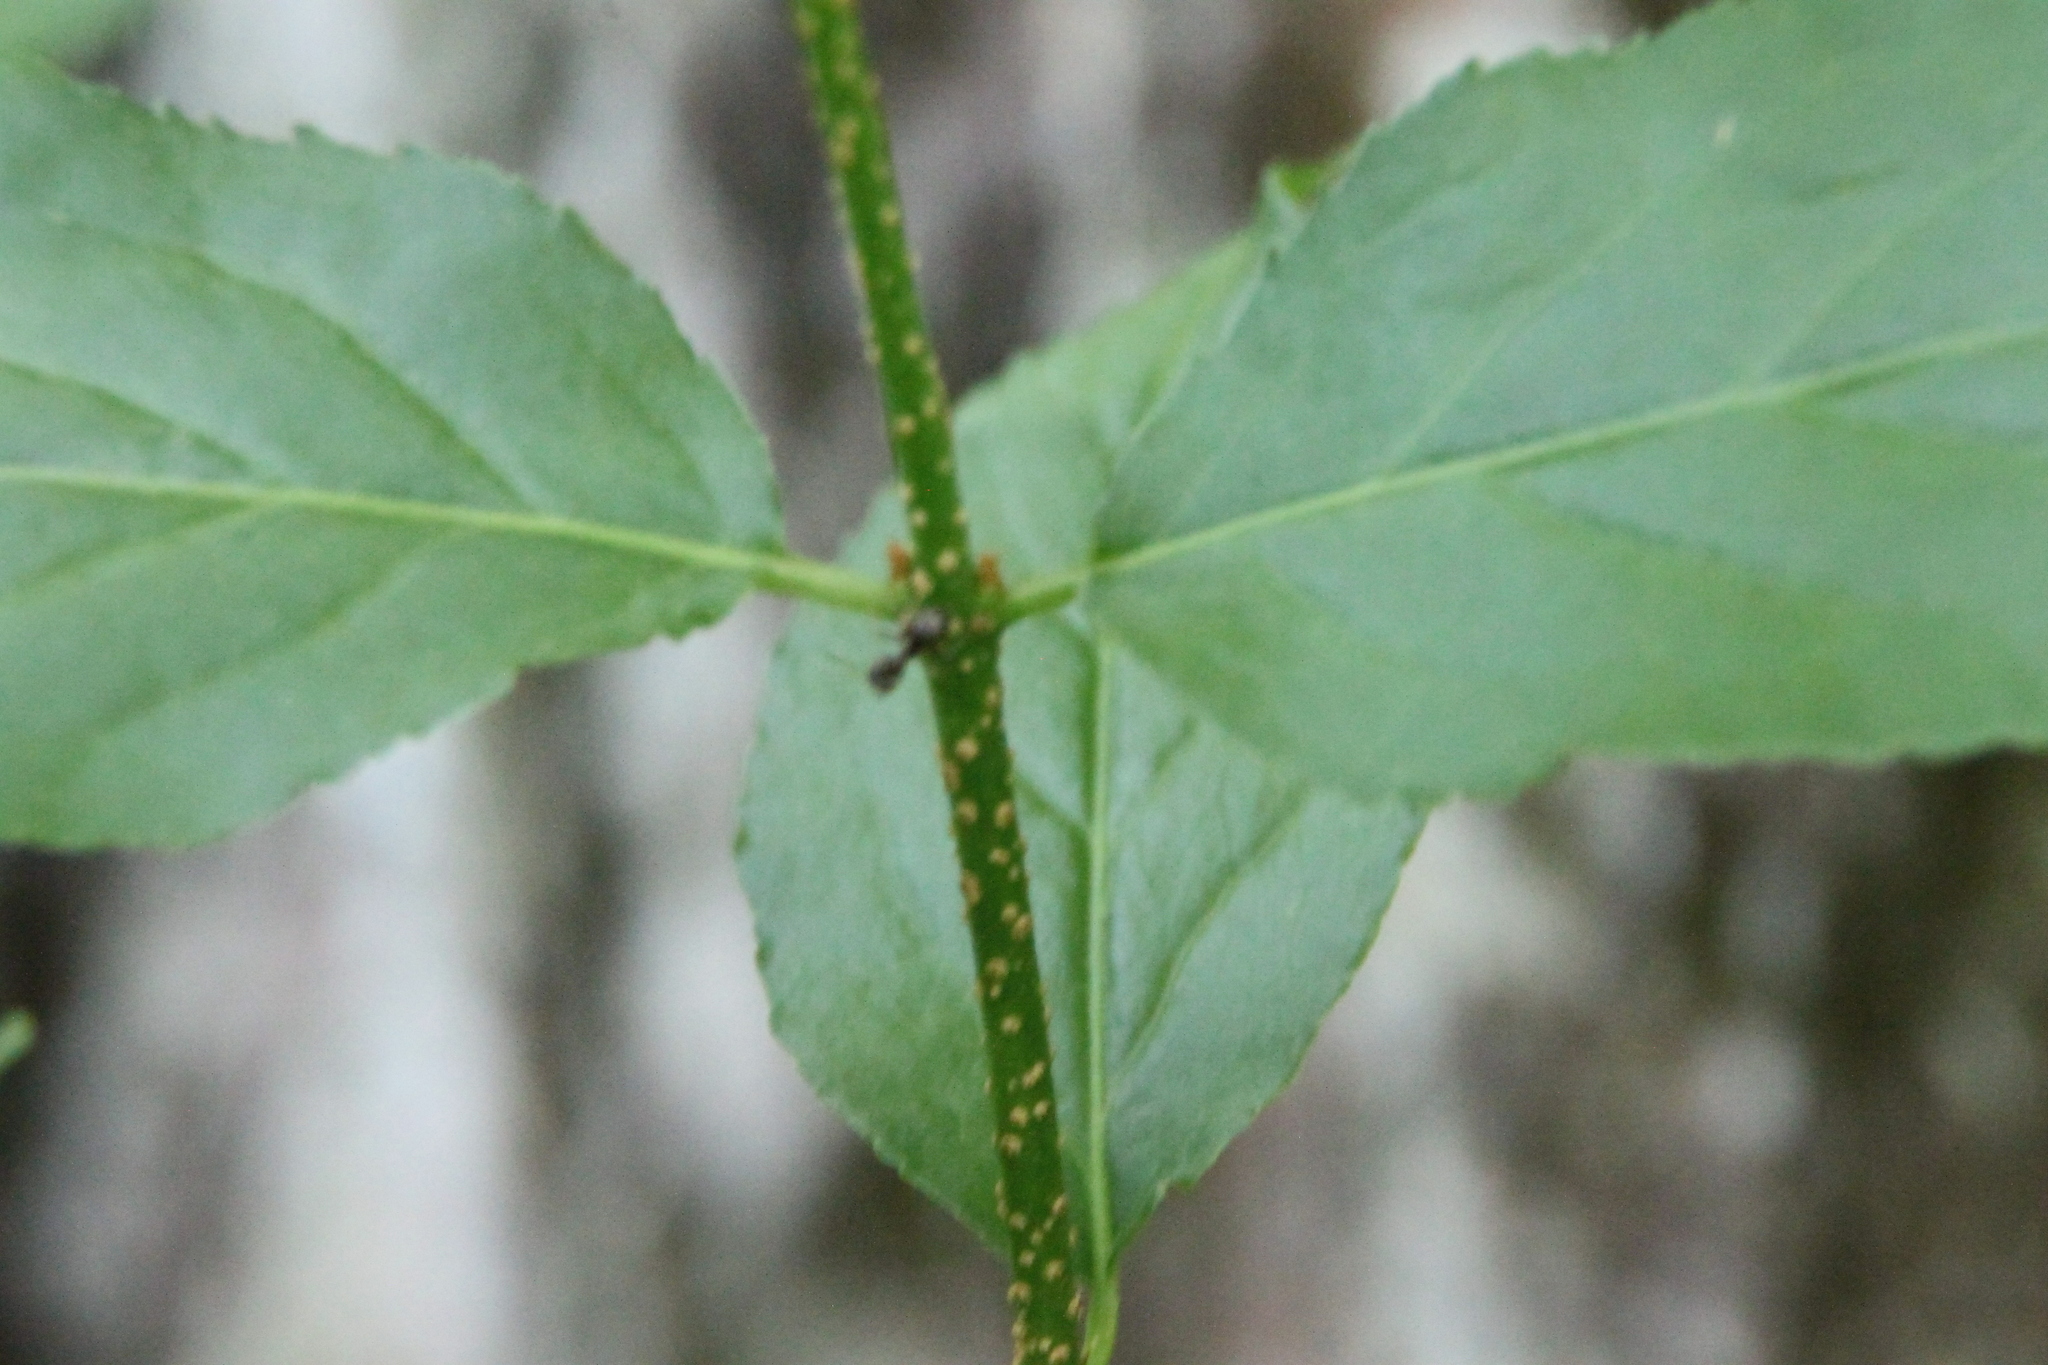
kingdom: Plantae
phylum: Tracheophyta
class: Magnoliopsida
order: Celastrales
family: Celastraceae
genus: Euonymus
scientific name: Euonymus verrucosus
